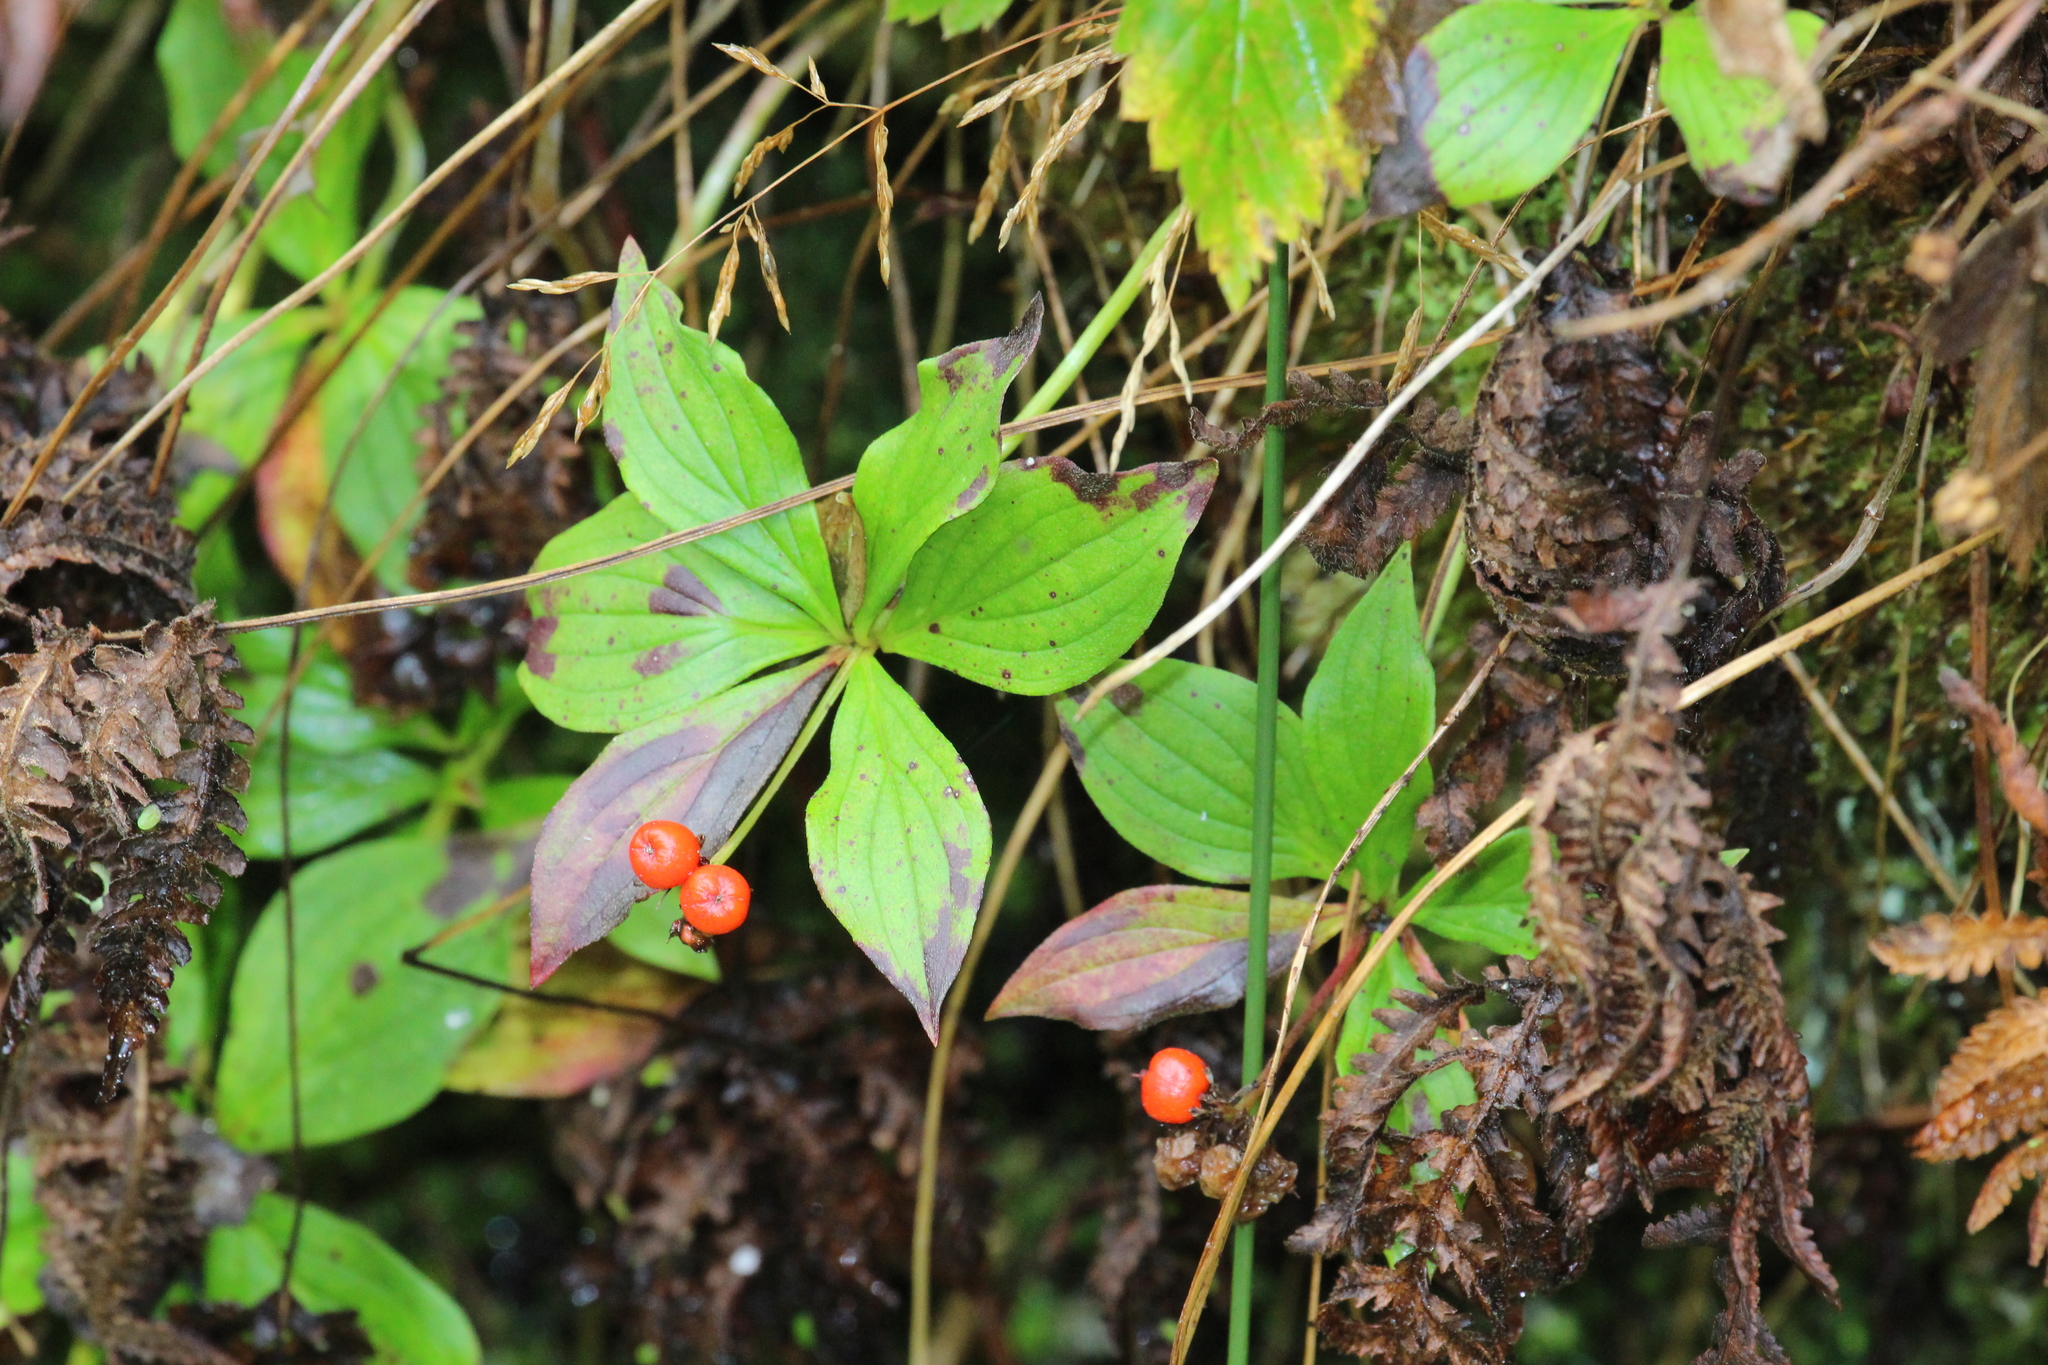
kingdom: Plantae
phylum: Tracheophyta
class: Magnoliopsida
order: Cornales
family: Cornaceae
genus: Cornus
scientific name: Cornus canadensis
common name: Creeping dogwood
